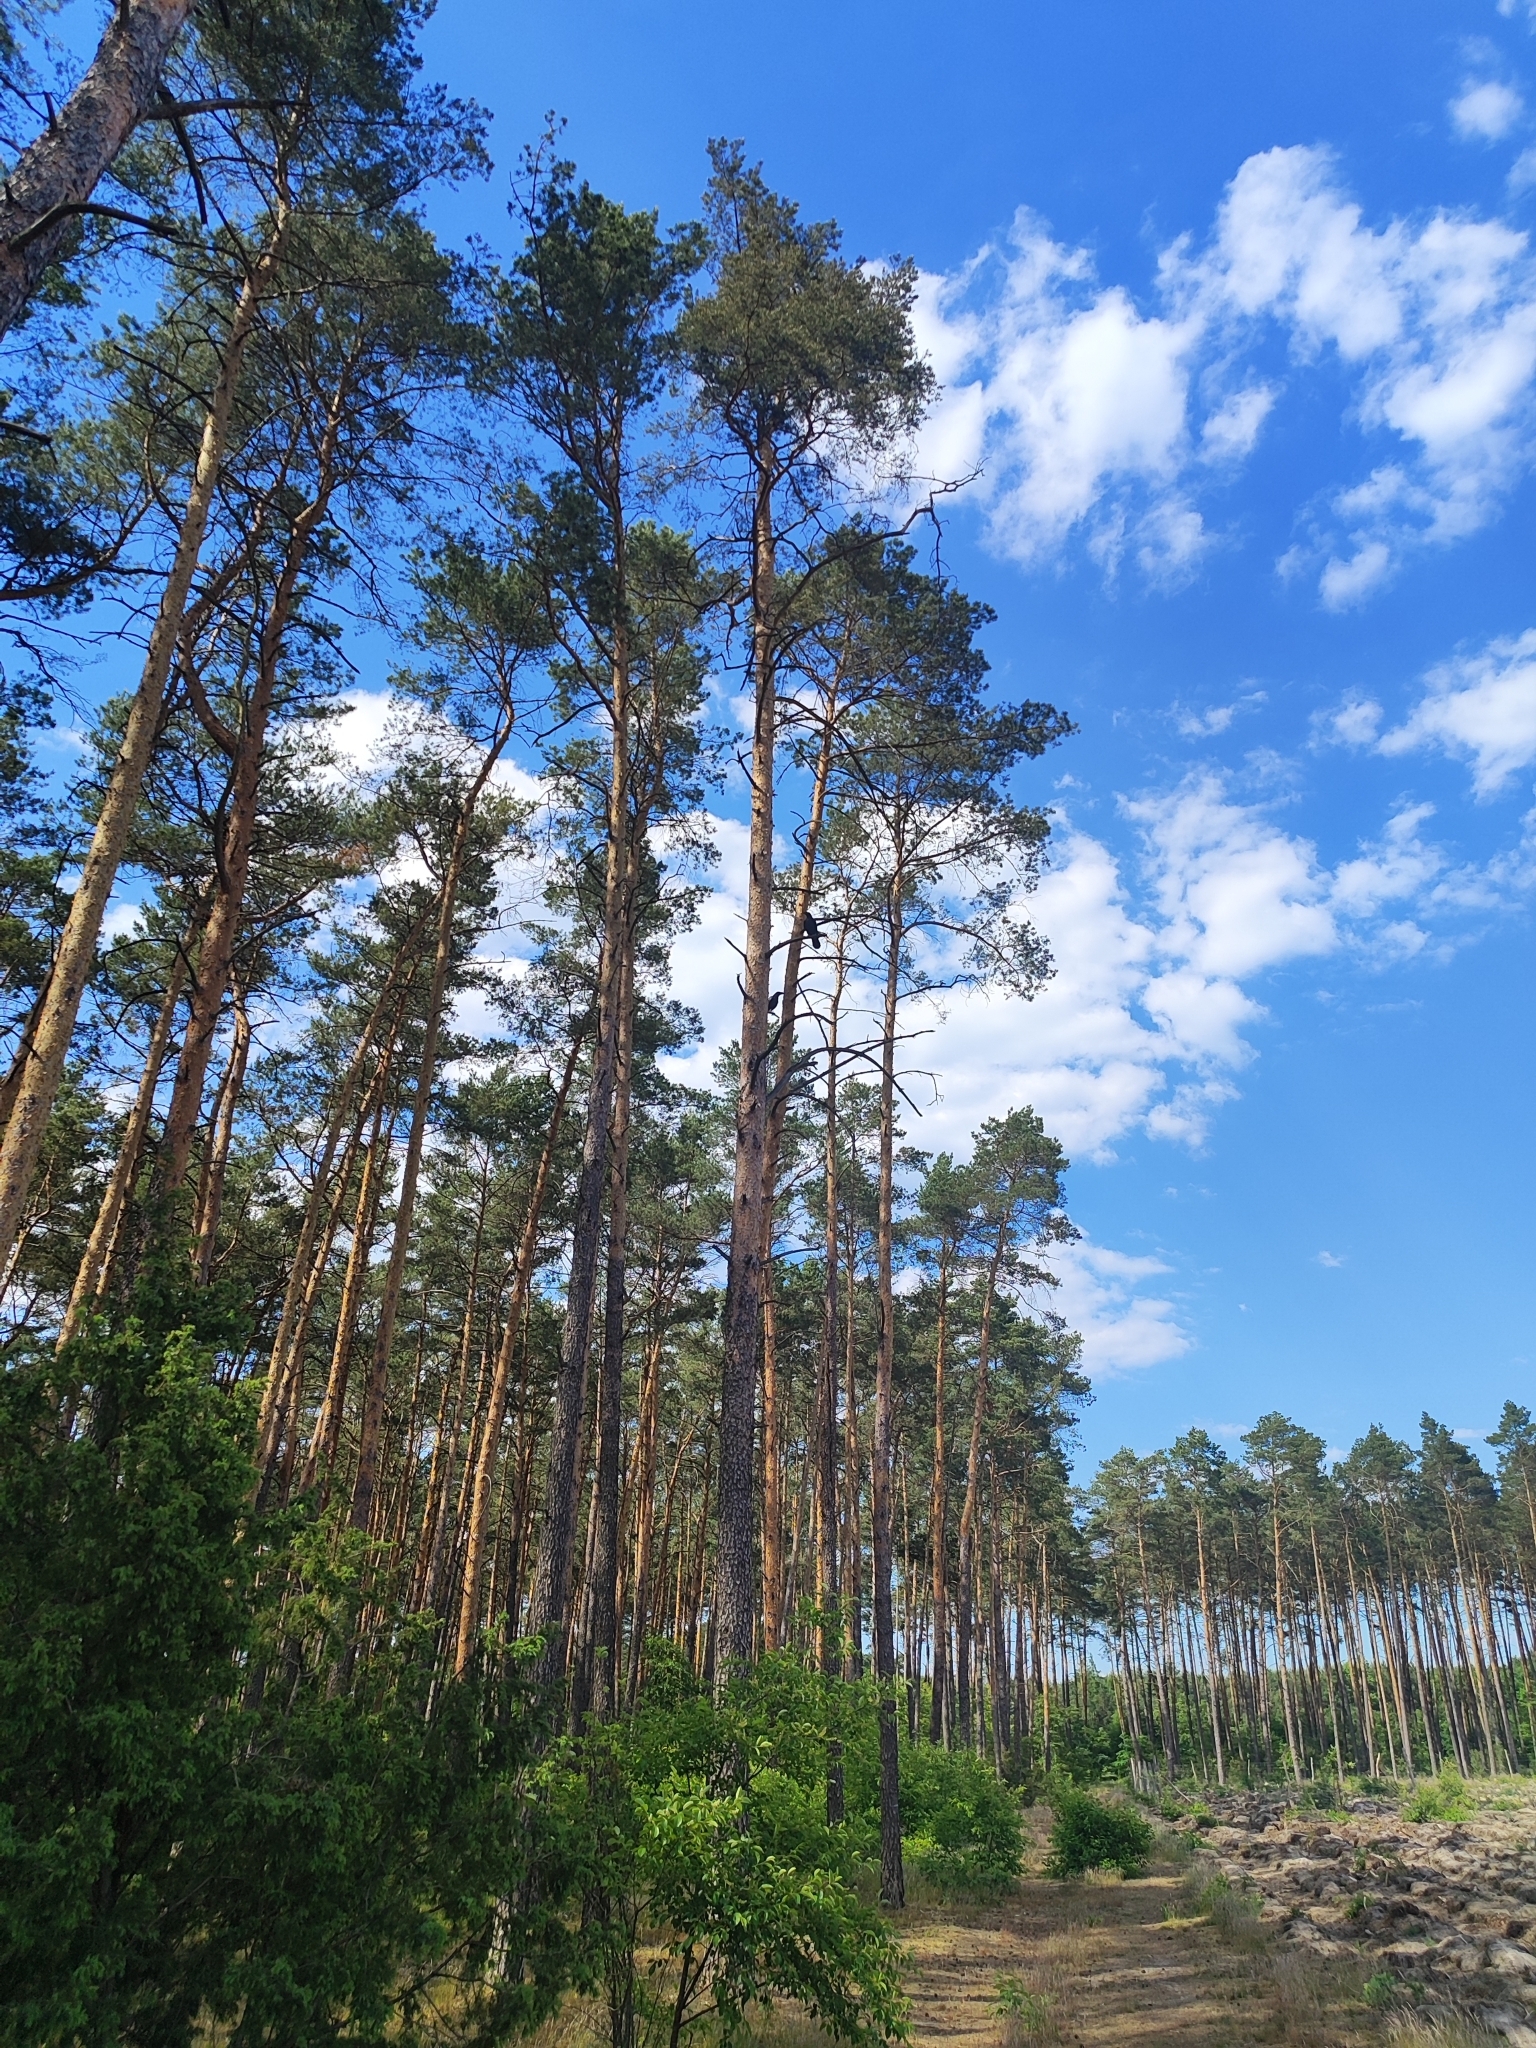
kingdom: Animalia
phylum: Chordata
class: Aves
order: Passeriformes
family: Corvidae
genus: Corvus
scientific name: Corvus corax
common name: Common raven
